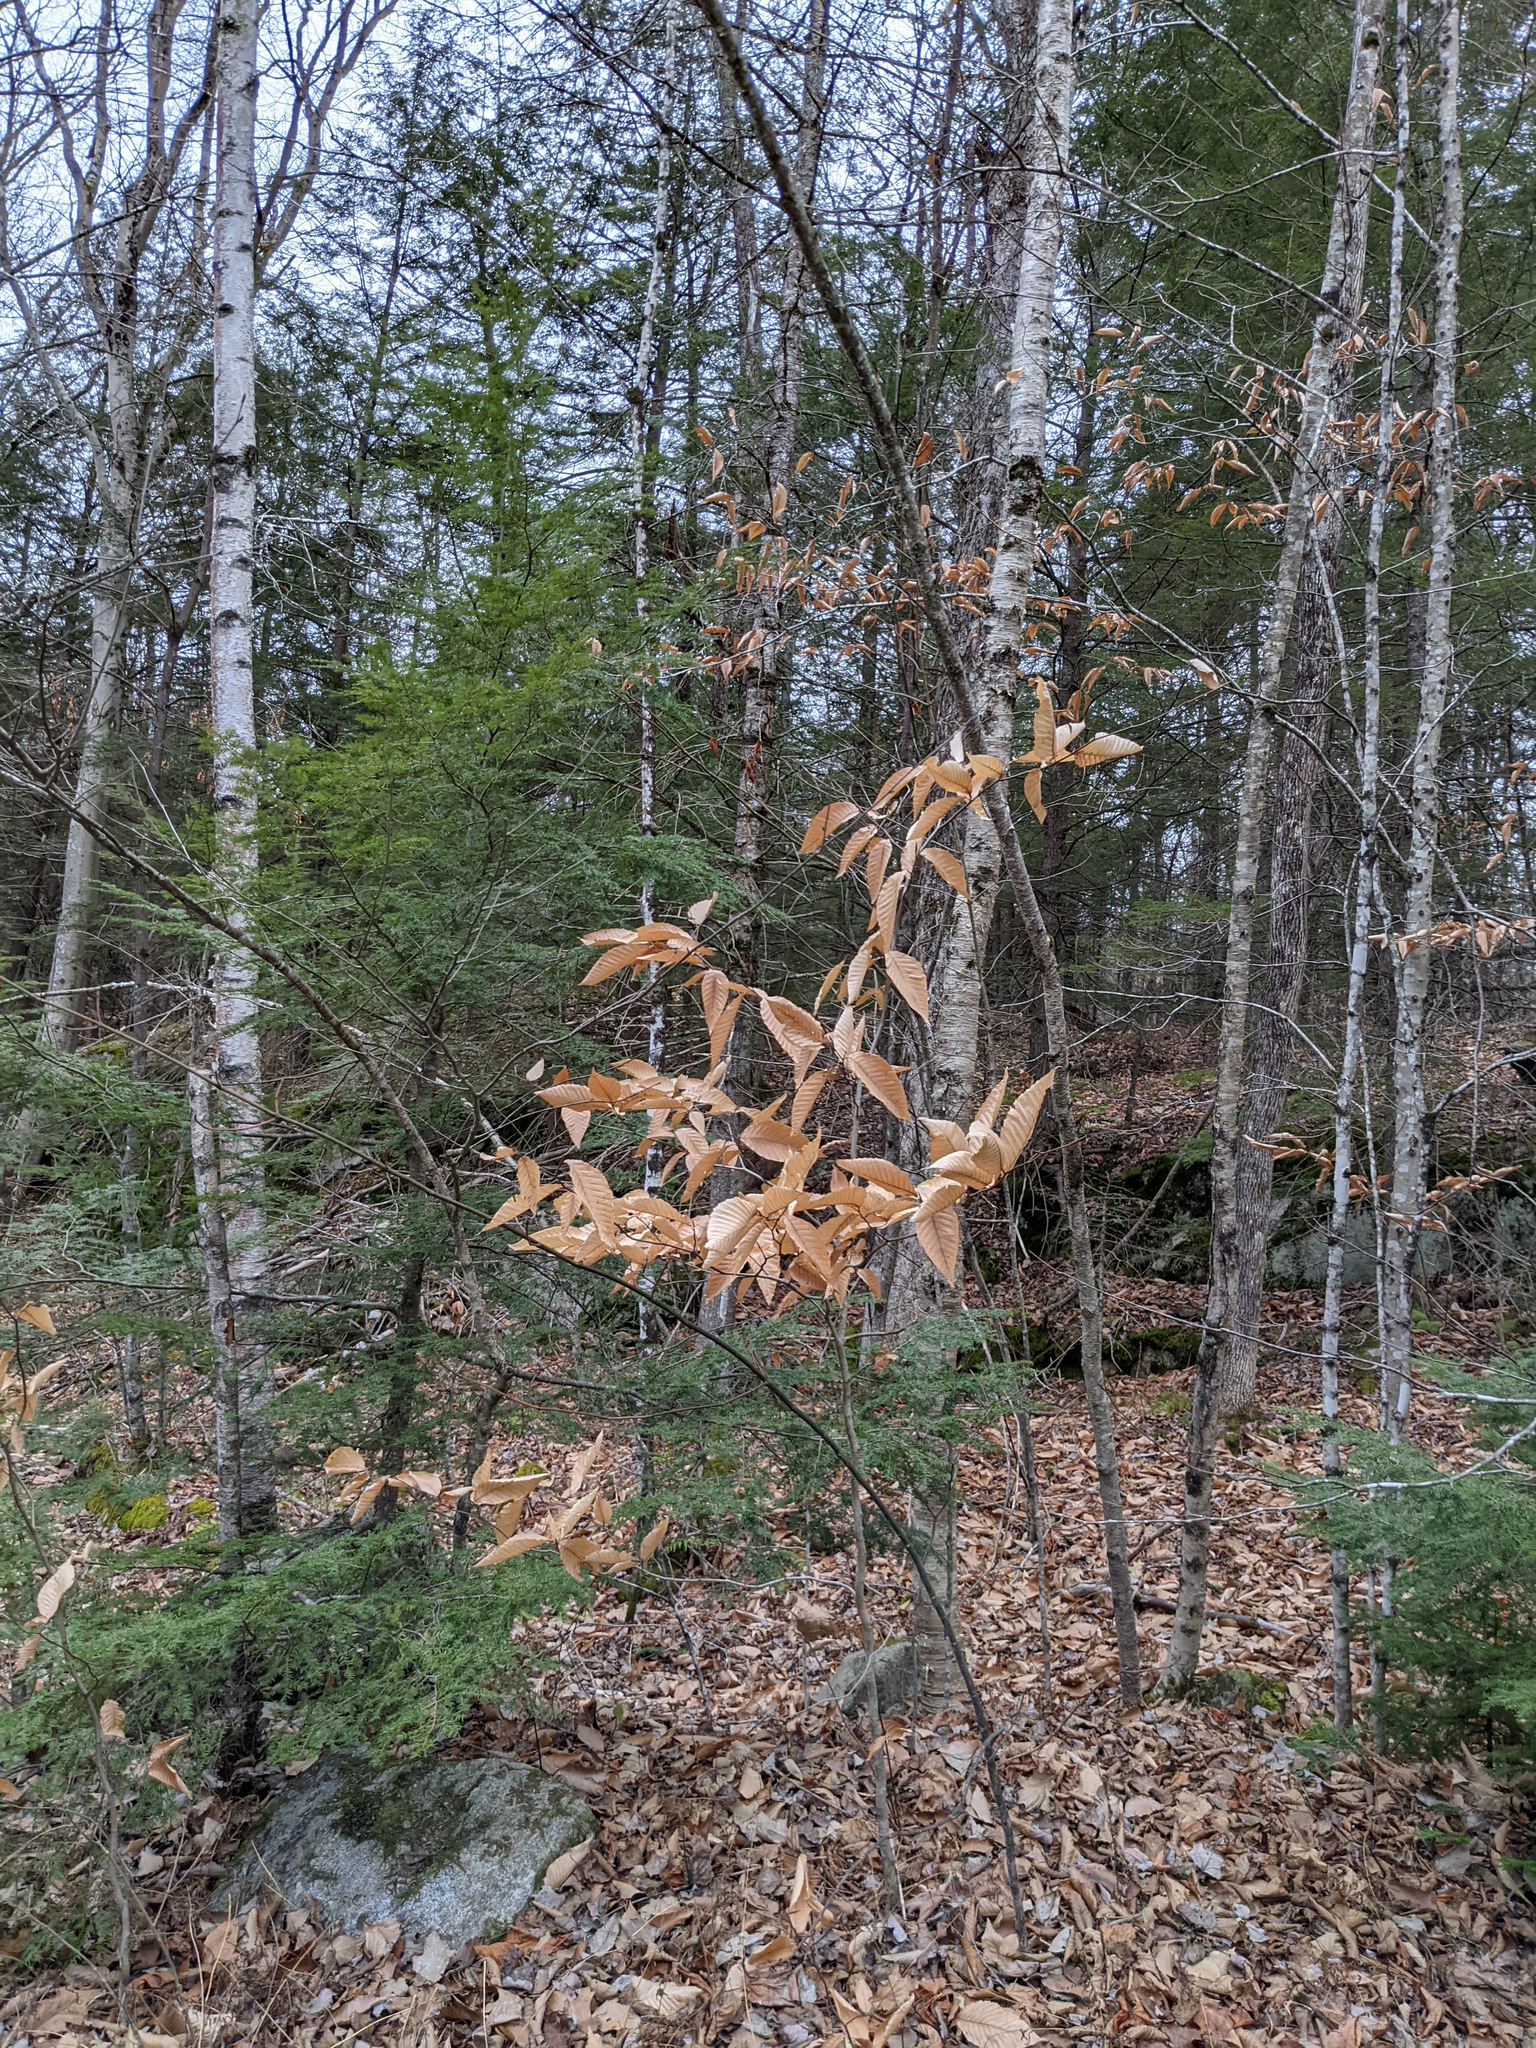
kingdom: Plantae
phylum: Tracheophyta
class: Magnoliopsida
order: Fagales
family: Fagaceae
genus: Fagus
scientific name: Fagus grandifolia
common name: American beech
